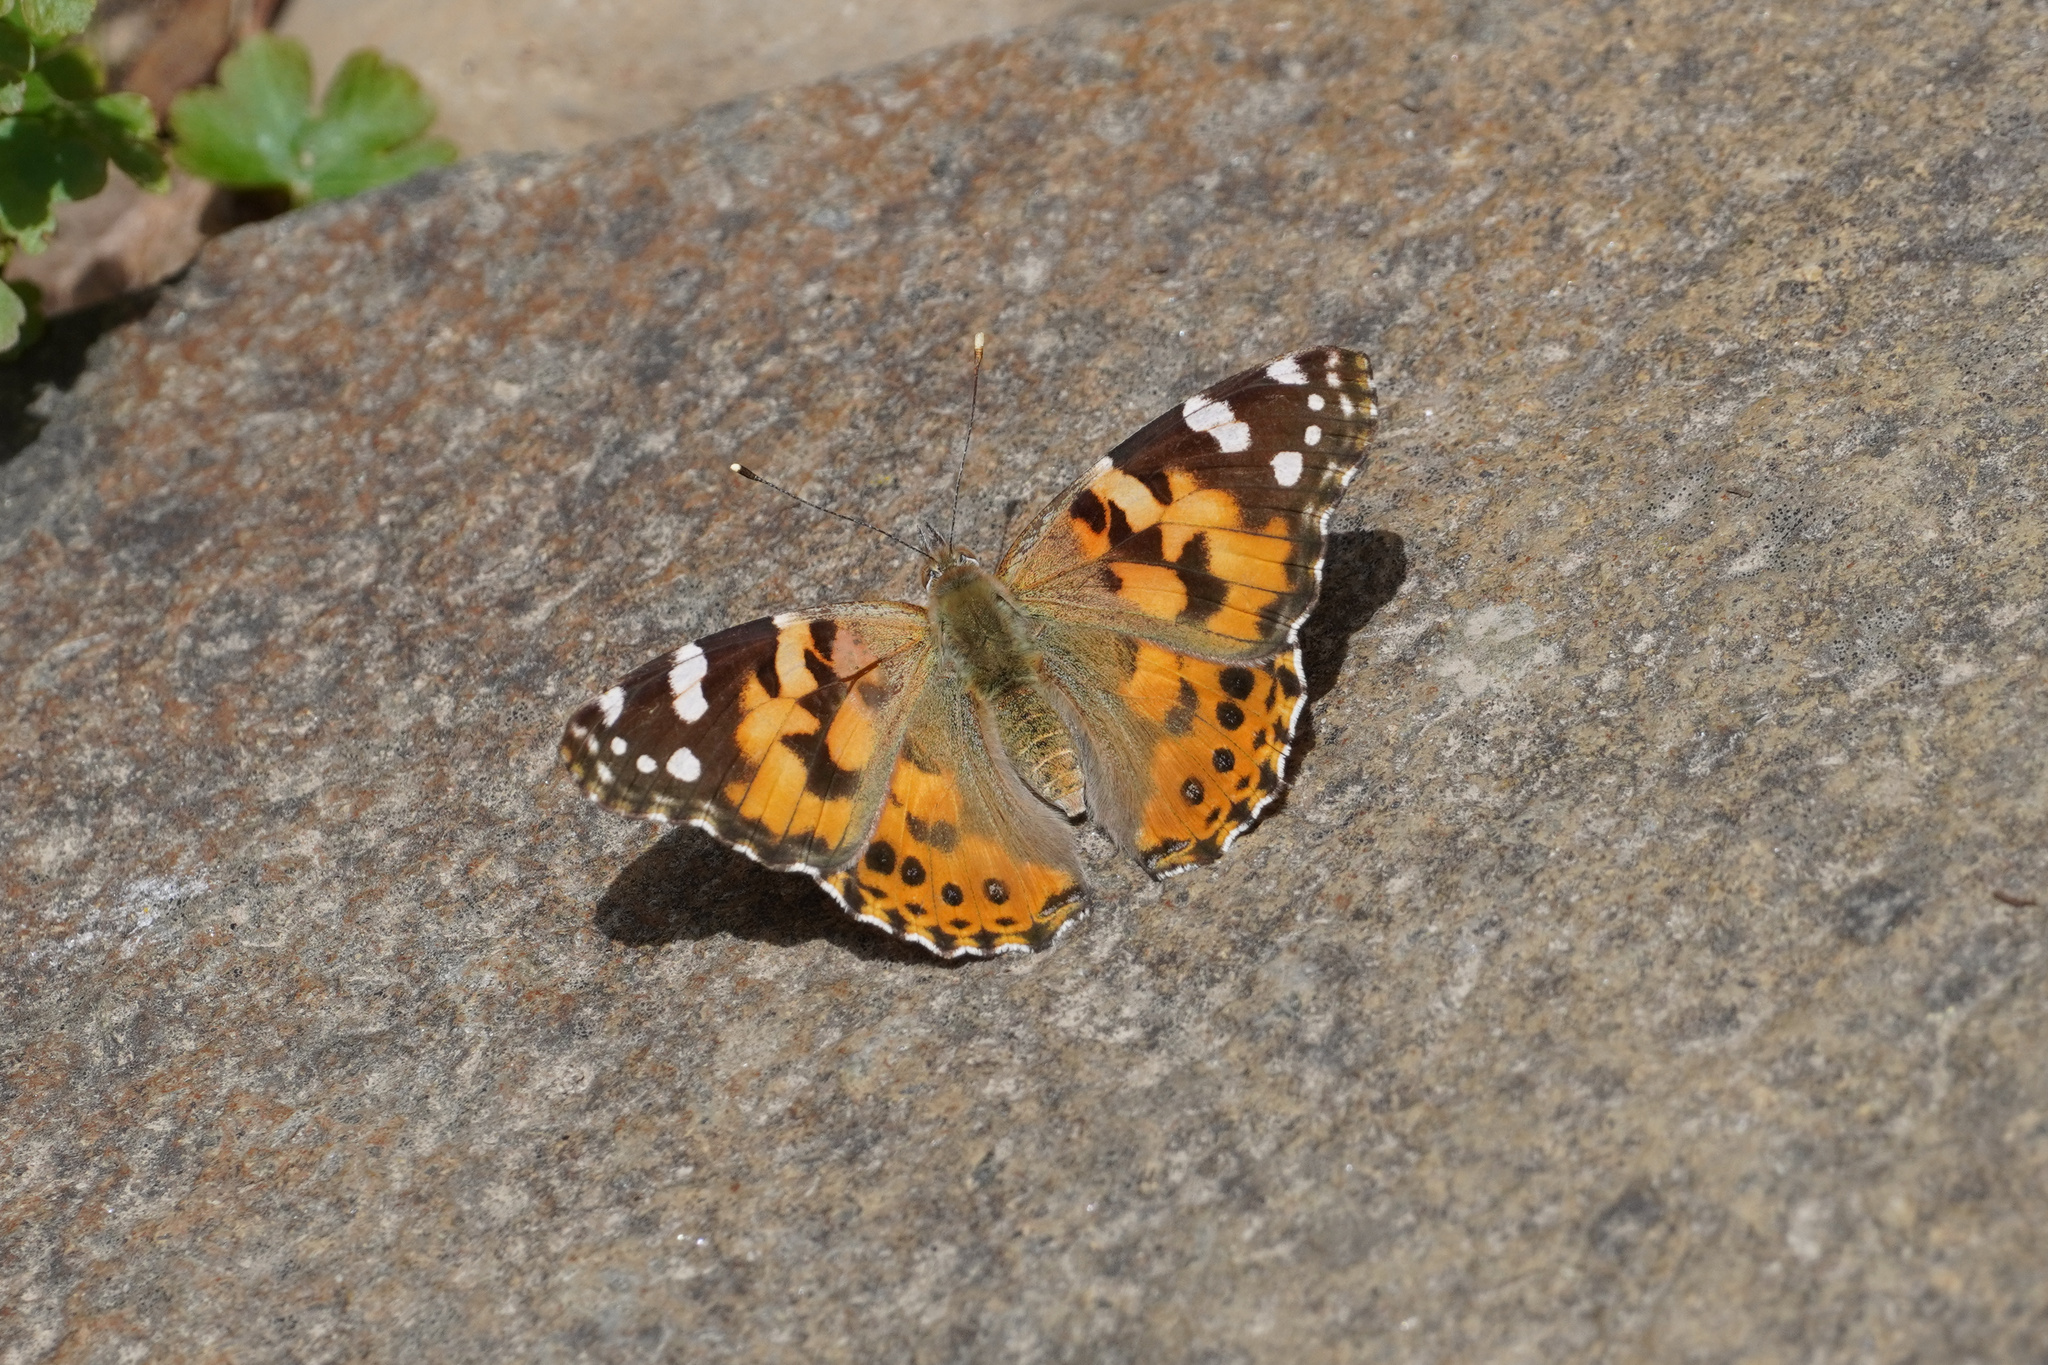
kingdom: Animalia
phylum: Arthropoda
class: Insecta
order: Lepidoptera
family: Nymphalidae
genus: Vanessa
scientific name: Vanessa cardui
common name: Painted lady
